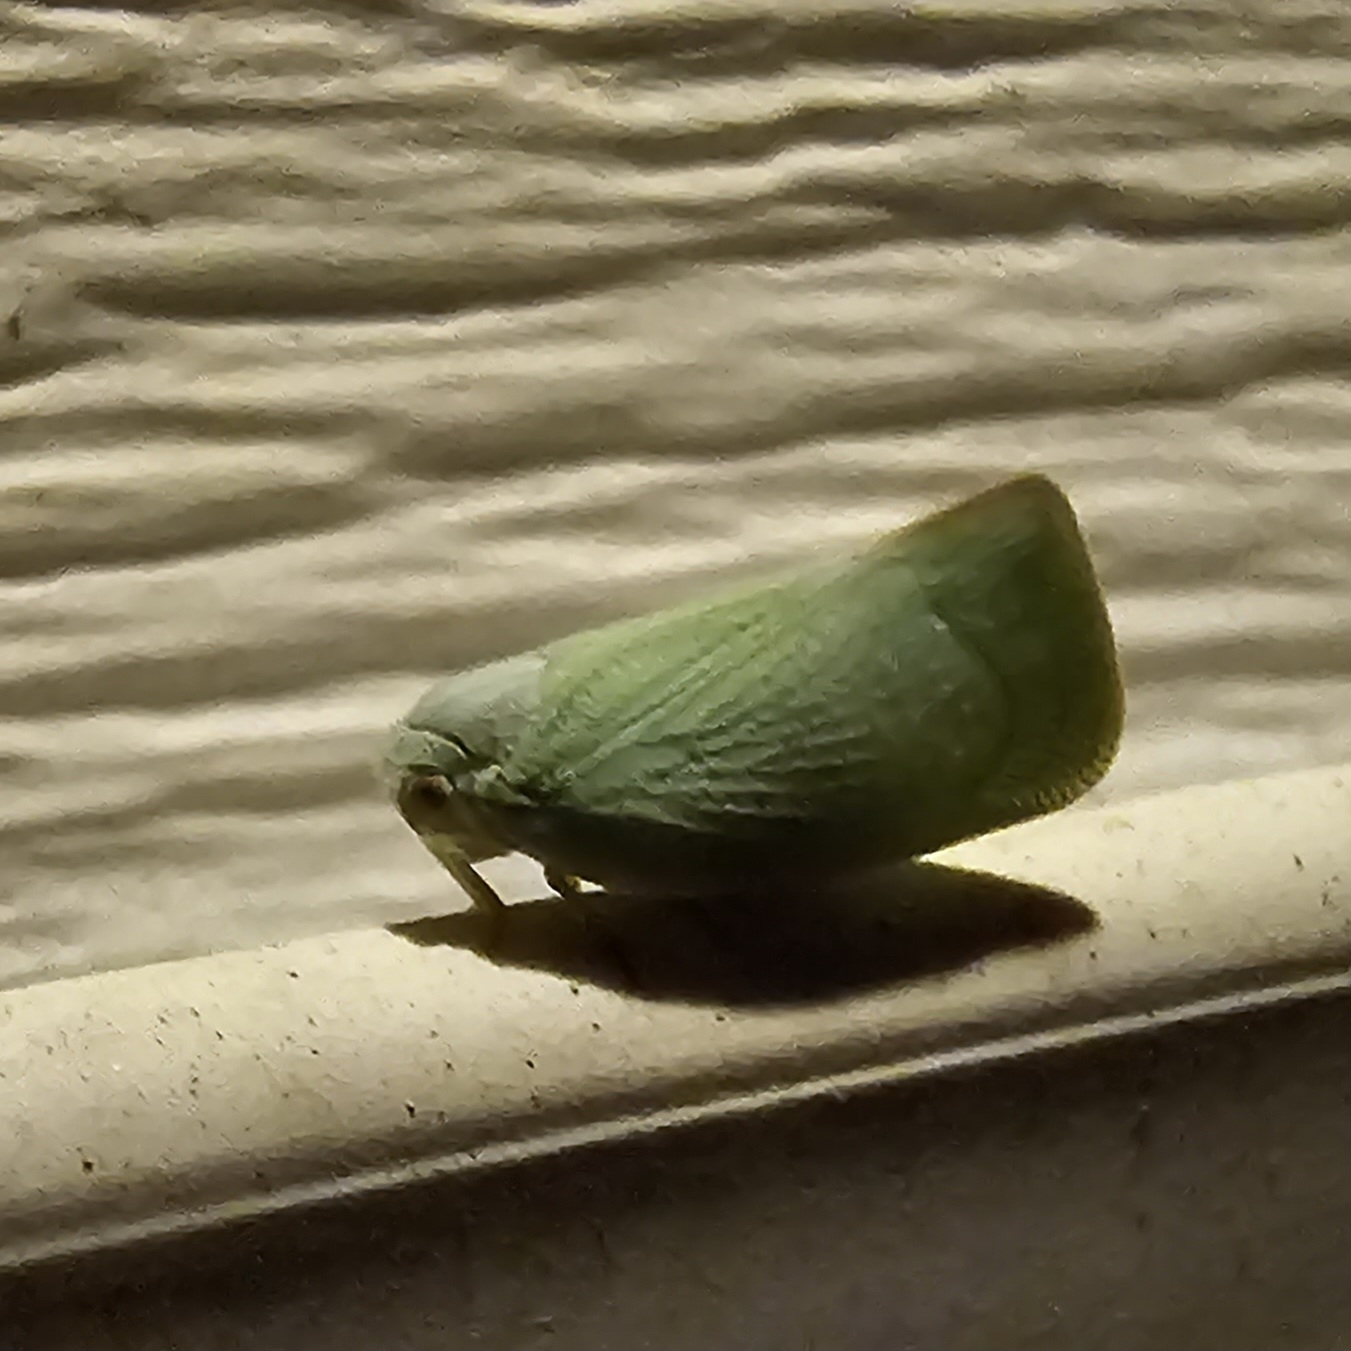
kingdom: Animalia
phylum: Arthropoda
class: Insecta
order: Hemiptera
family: Flatidae
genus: Flatormenis
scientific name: Flatormenis proxima
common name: Northern flatid planthopper
